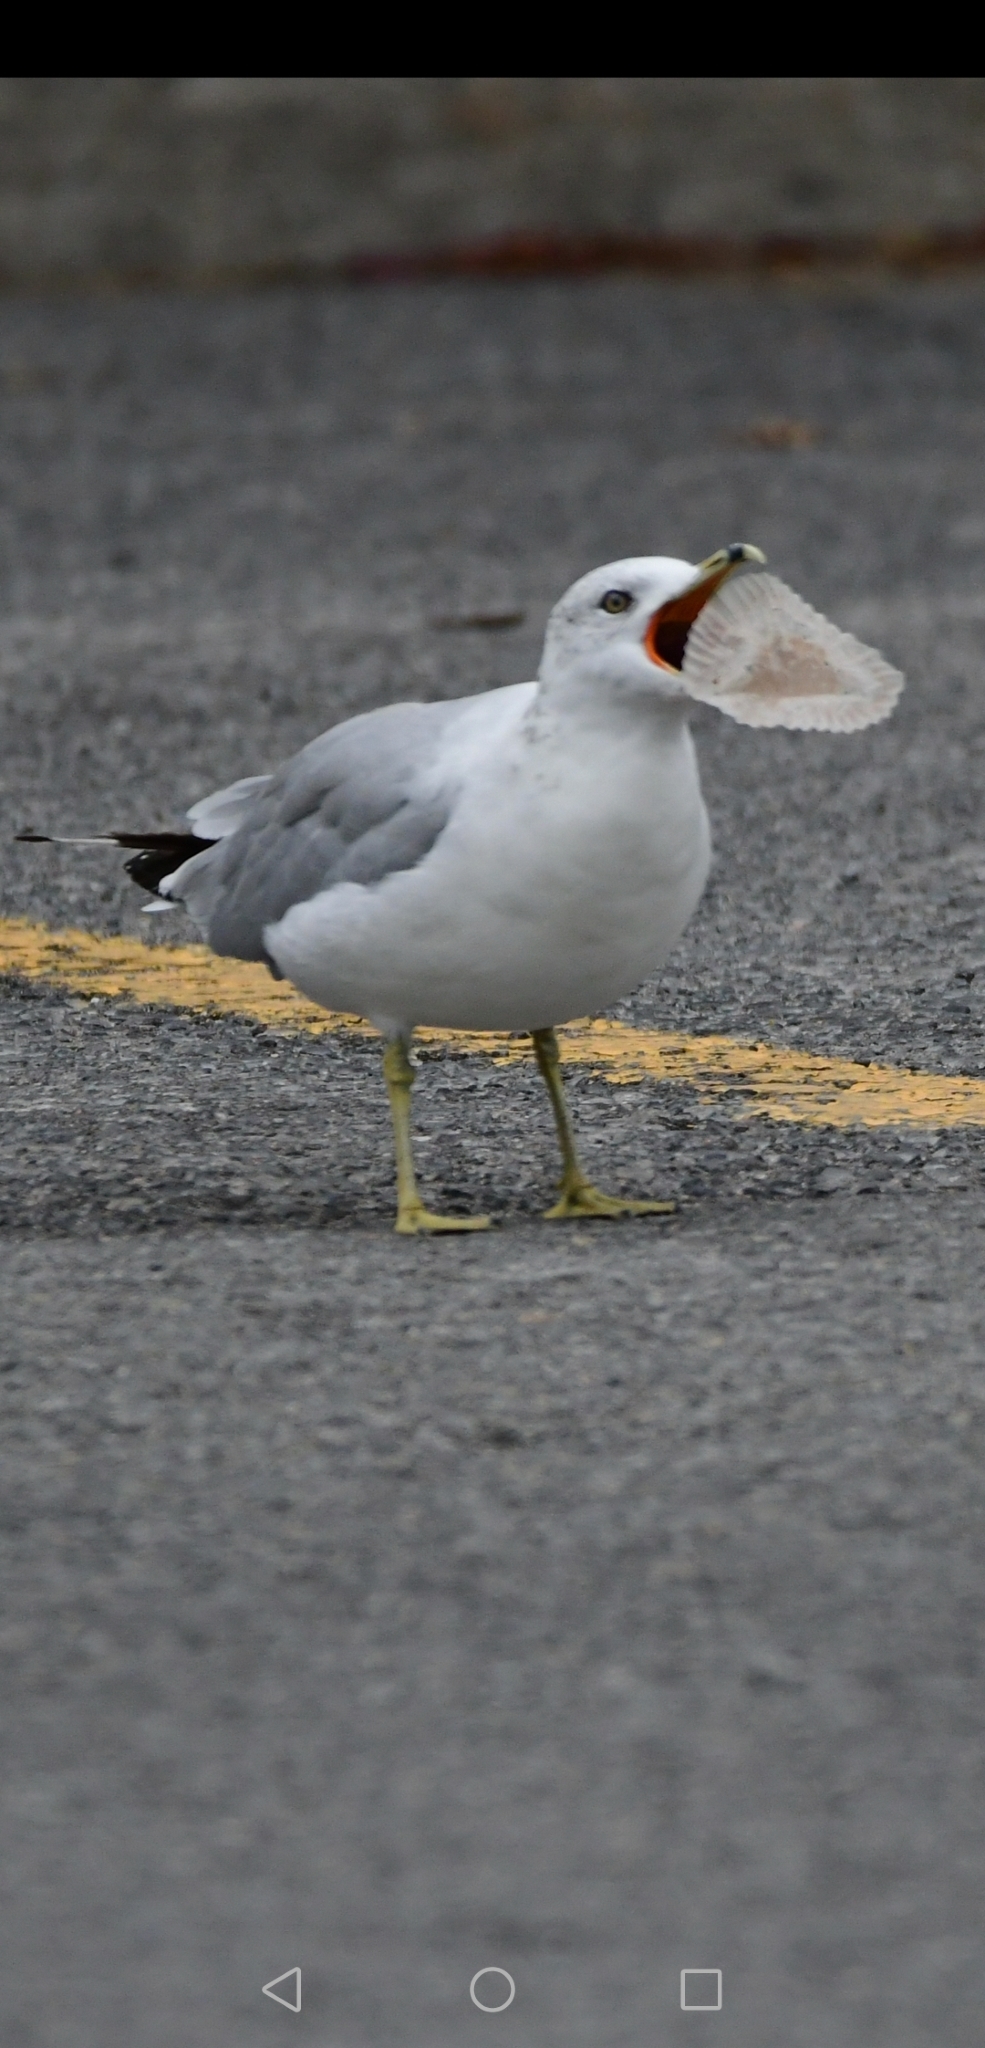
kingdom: Animalia
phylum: Chordata
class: Aves
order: Charadriiformes
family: Laridae
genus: Larus
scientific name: Larus delawarensis
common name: Ring-billed gull
